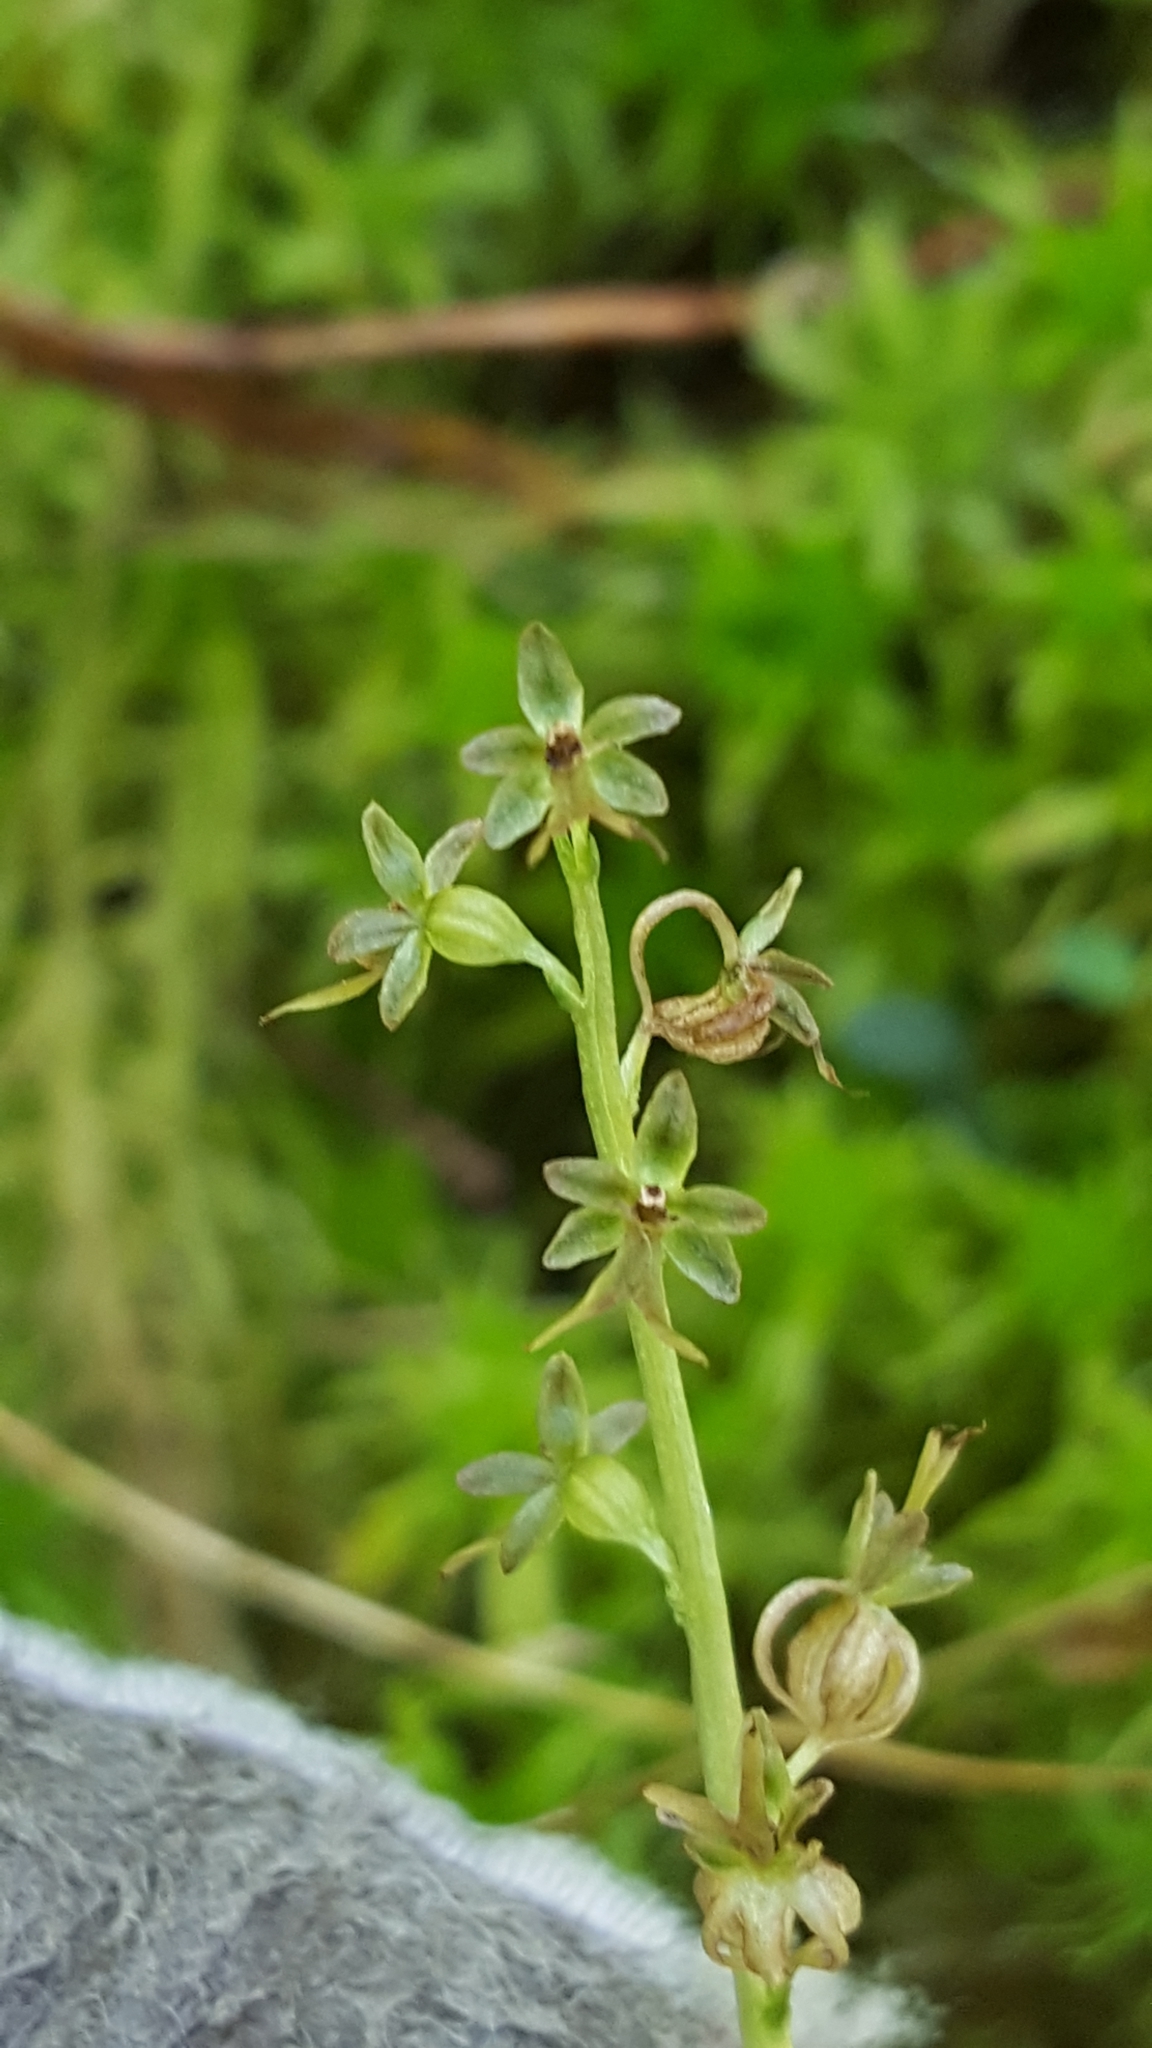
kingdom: Plantae
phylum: Tracheophyta
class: Liliopsida
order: Asparagales
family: Orchidaceae
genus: Neottia
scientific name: Neottia cordata
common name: Lesser twayblade
